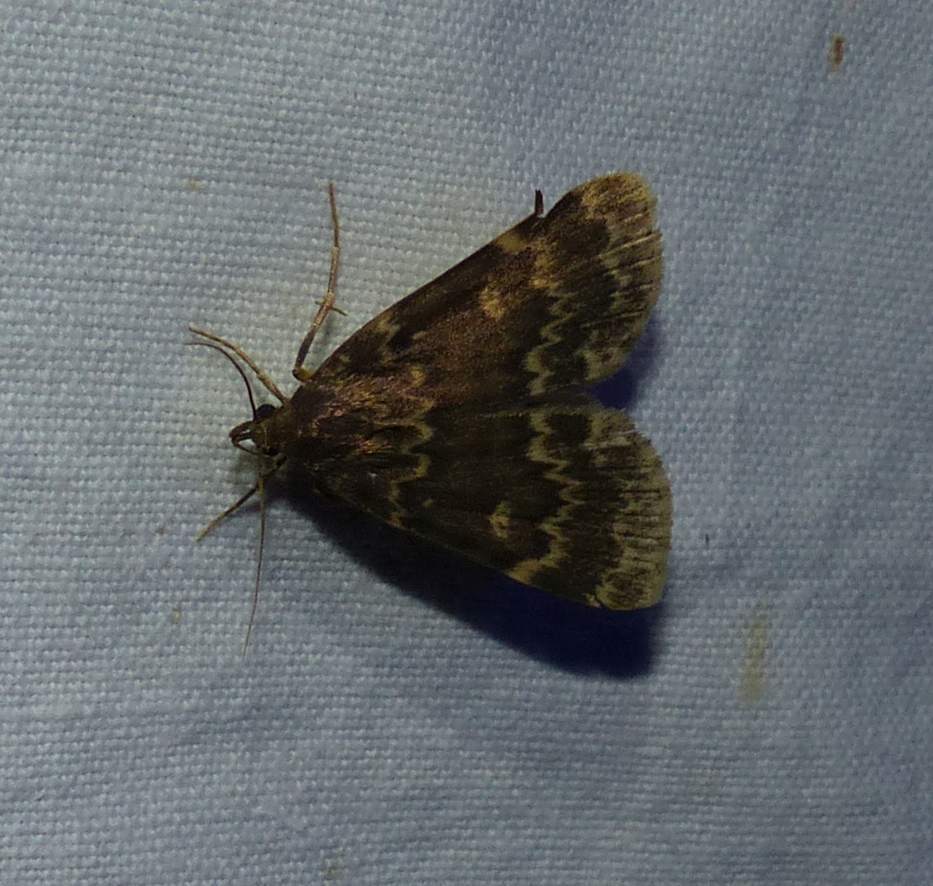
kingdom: Animalia
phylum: Arthropoda
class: Insecta
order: Lepidoptera
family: Erebidae
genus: Idia
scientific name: Idia lubricalis
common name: Twin-striped tabby
